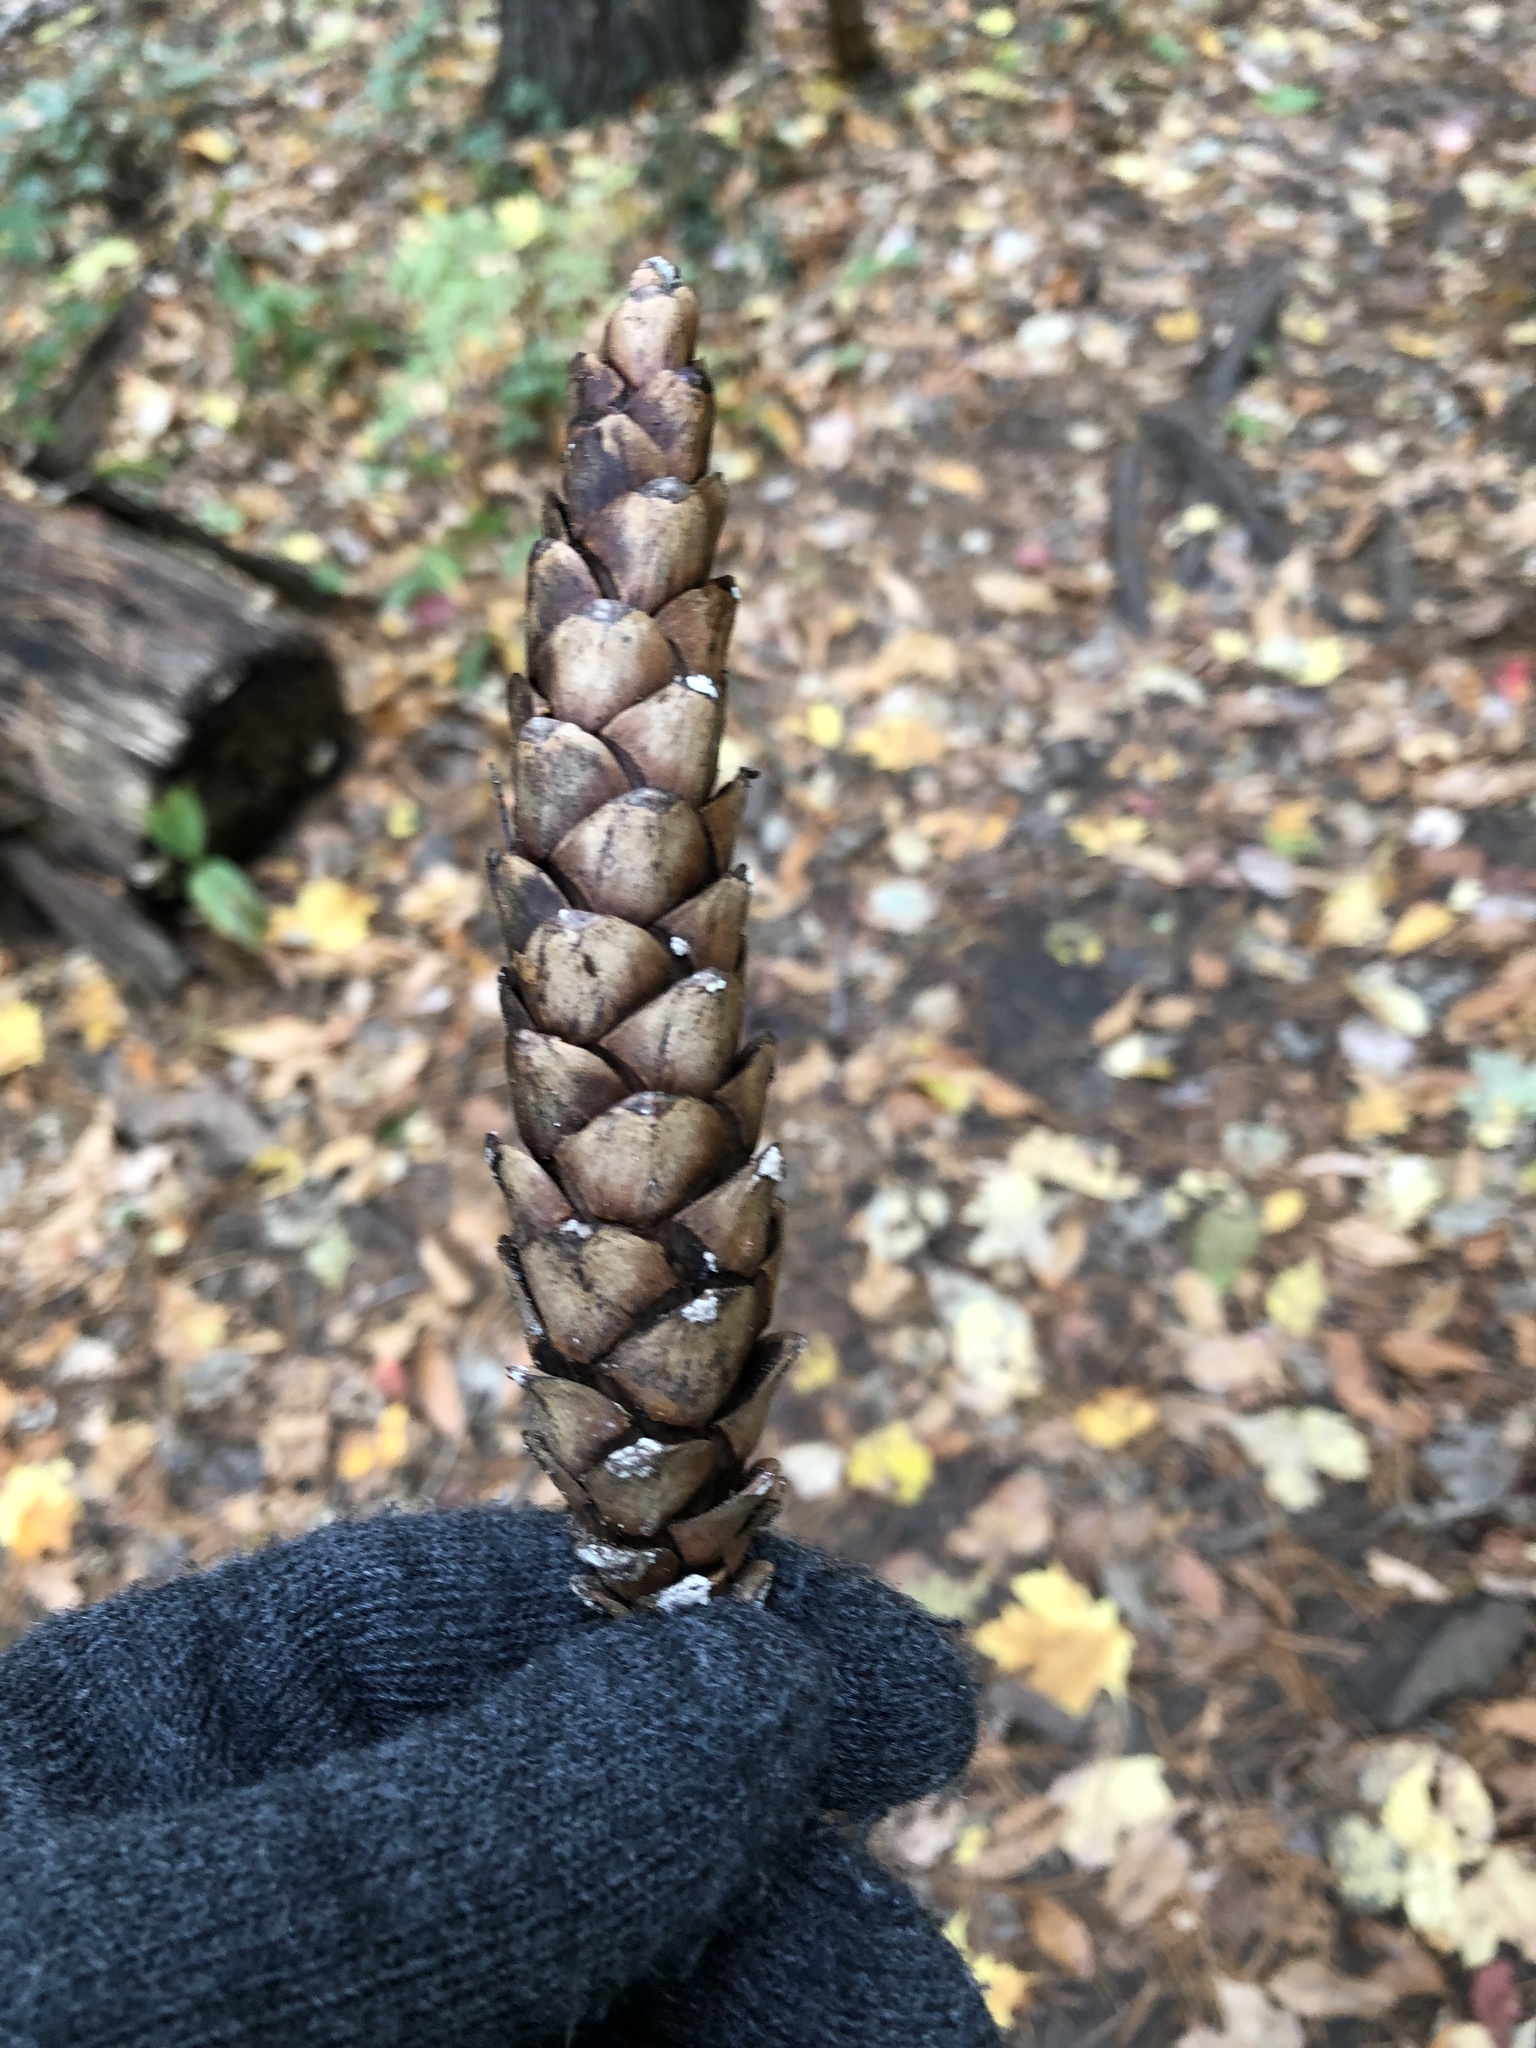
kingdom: Plantae
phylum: Tracheophyta
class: Pinopsida
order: Pinales
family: Pinaceae
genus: Pinus
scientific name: Pinus strobus
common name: Weymouth pine
